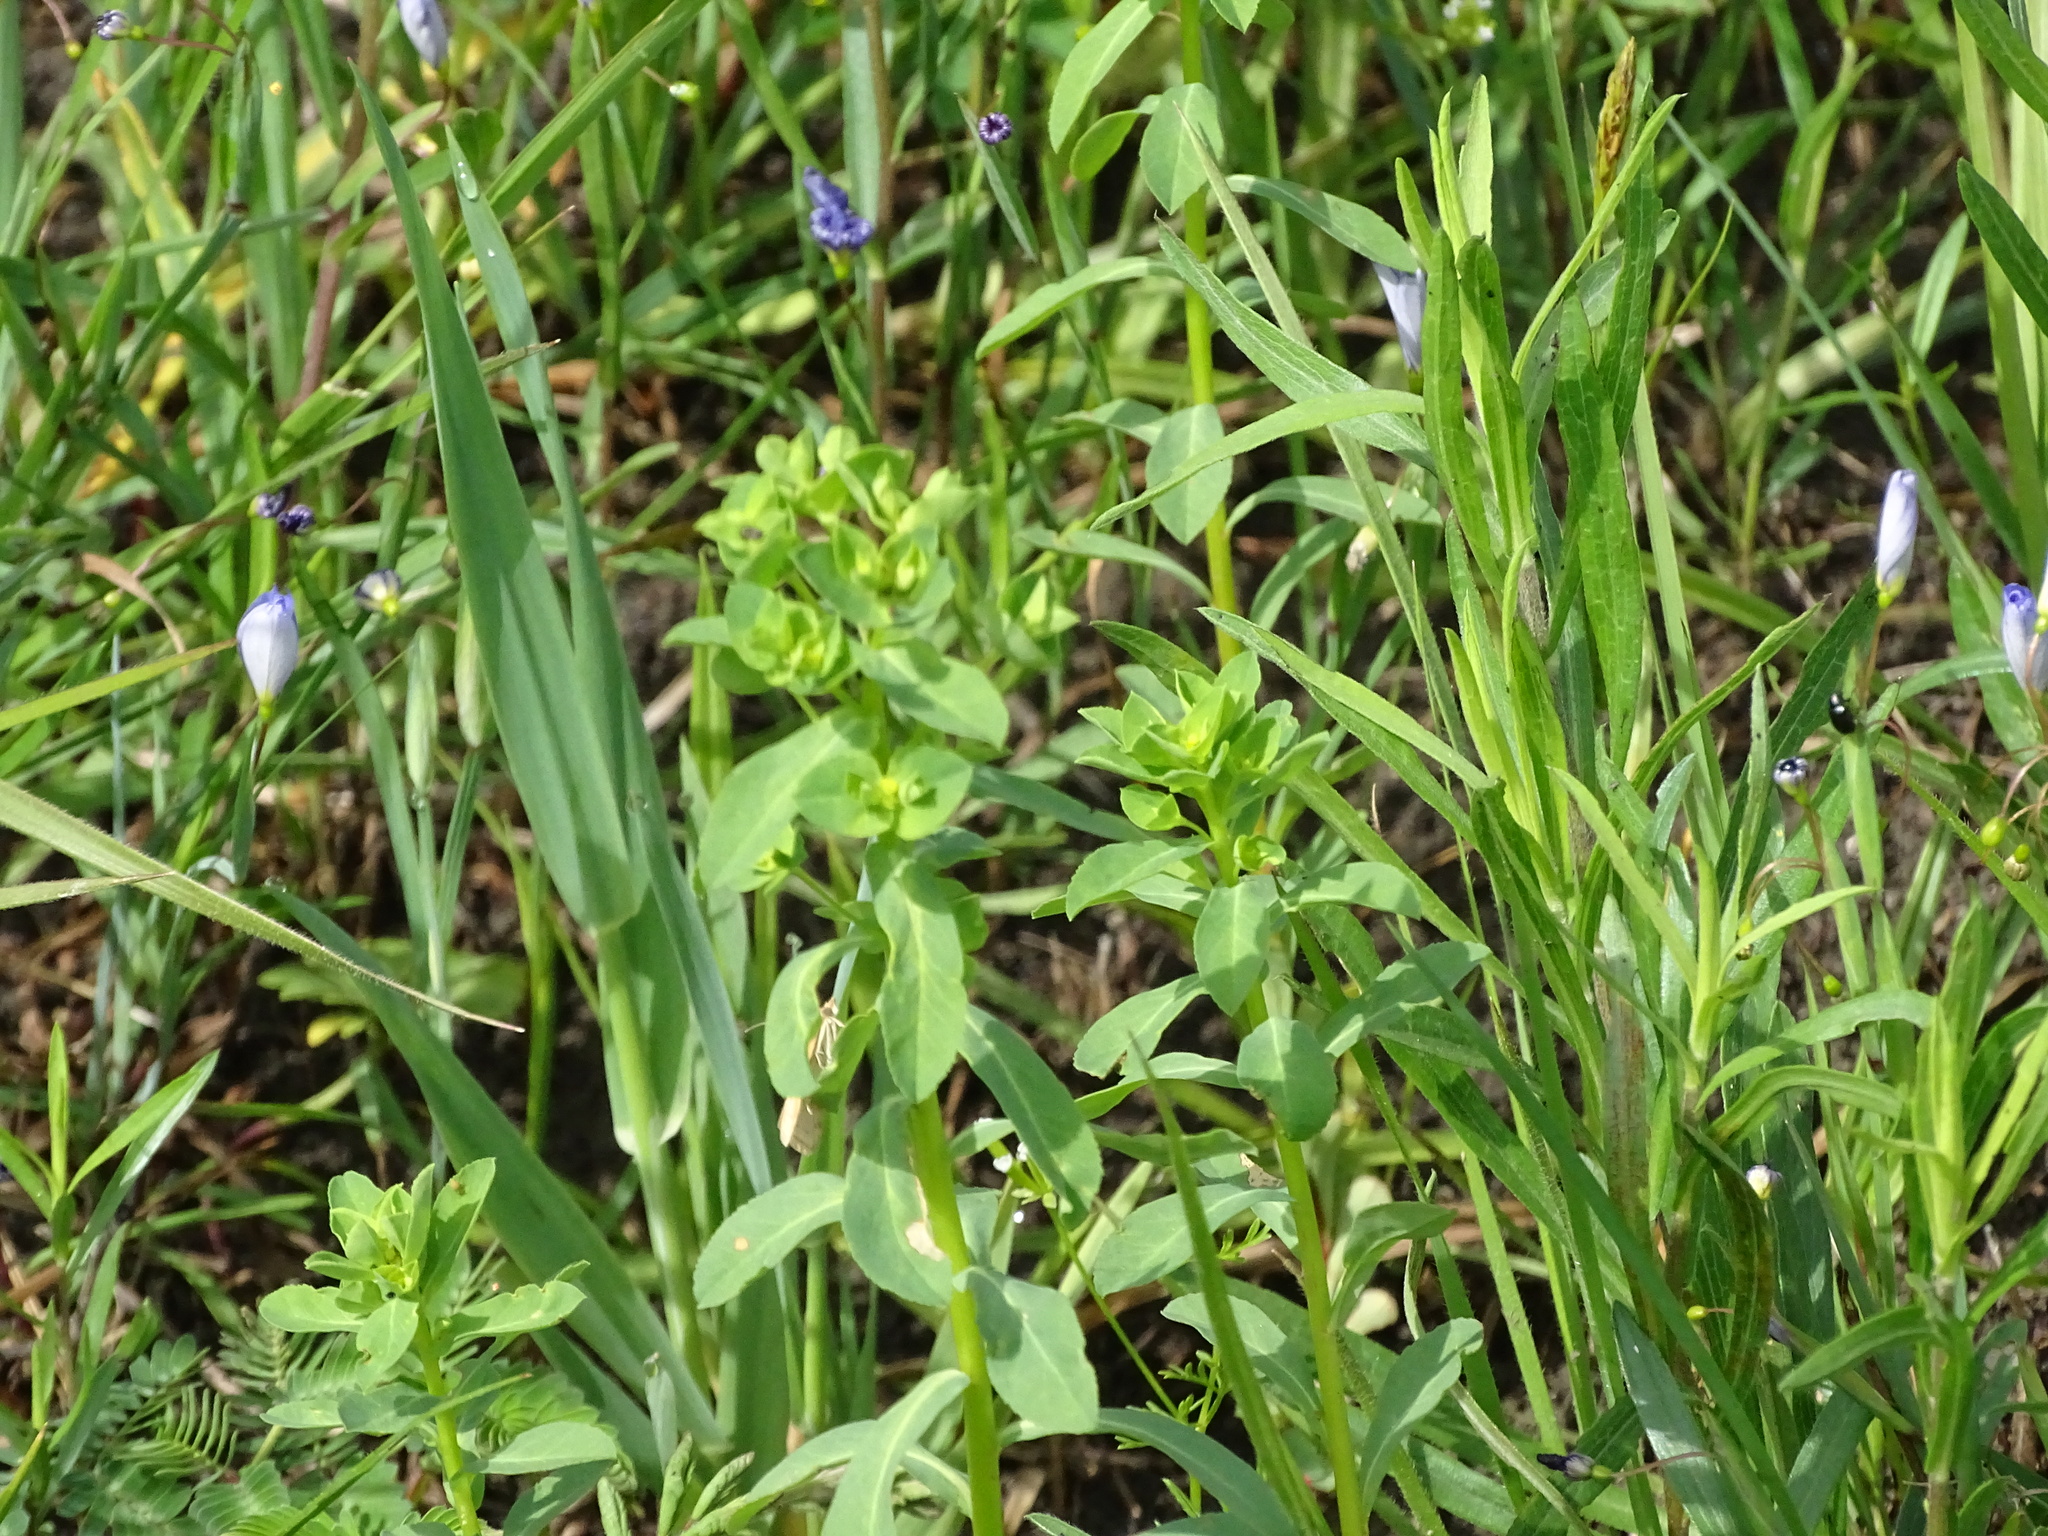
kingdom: Plantae
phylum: Tracheophyta
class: Magnoliopsida
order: Malpighiales
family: Euphorbiaceae
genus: Euphorbia
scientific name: Euphorbia spathulata
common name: Blunt spurge
